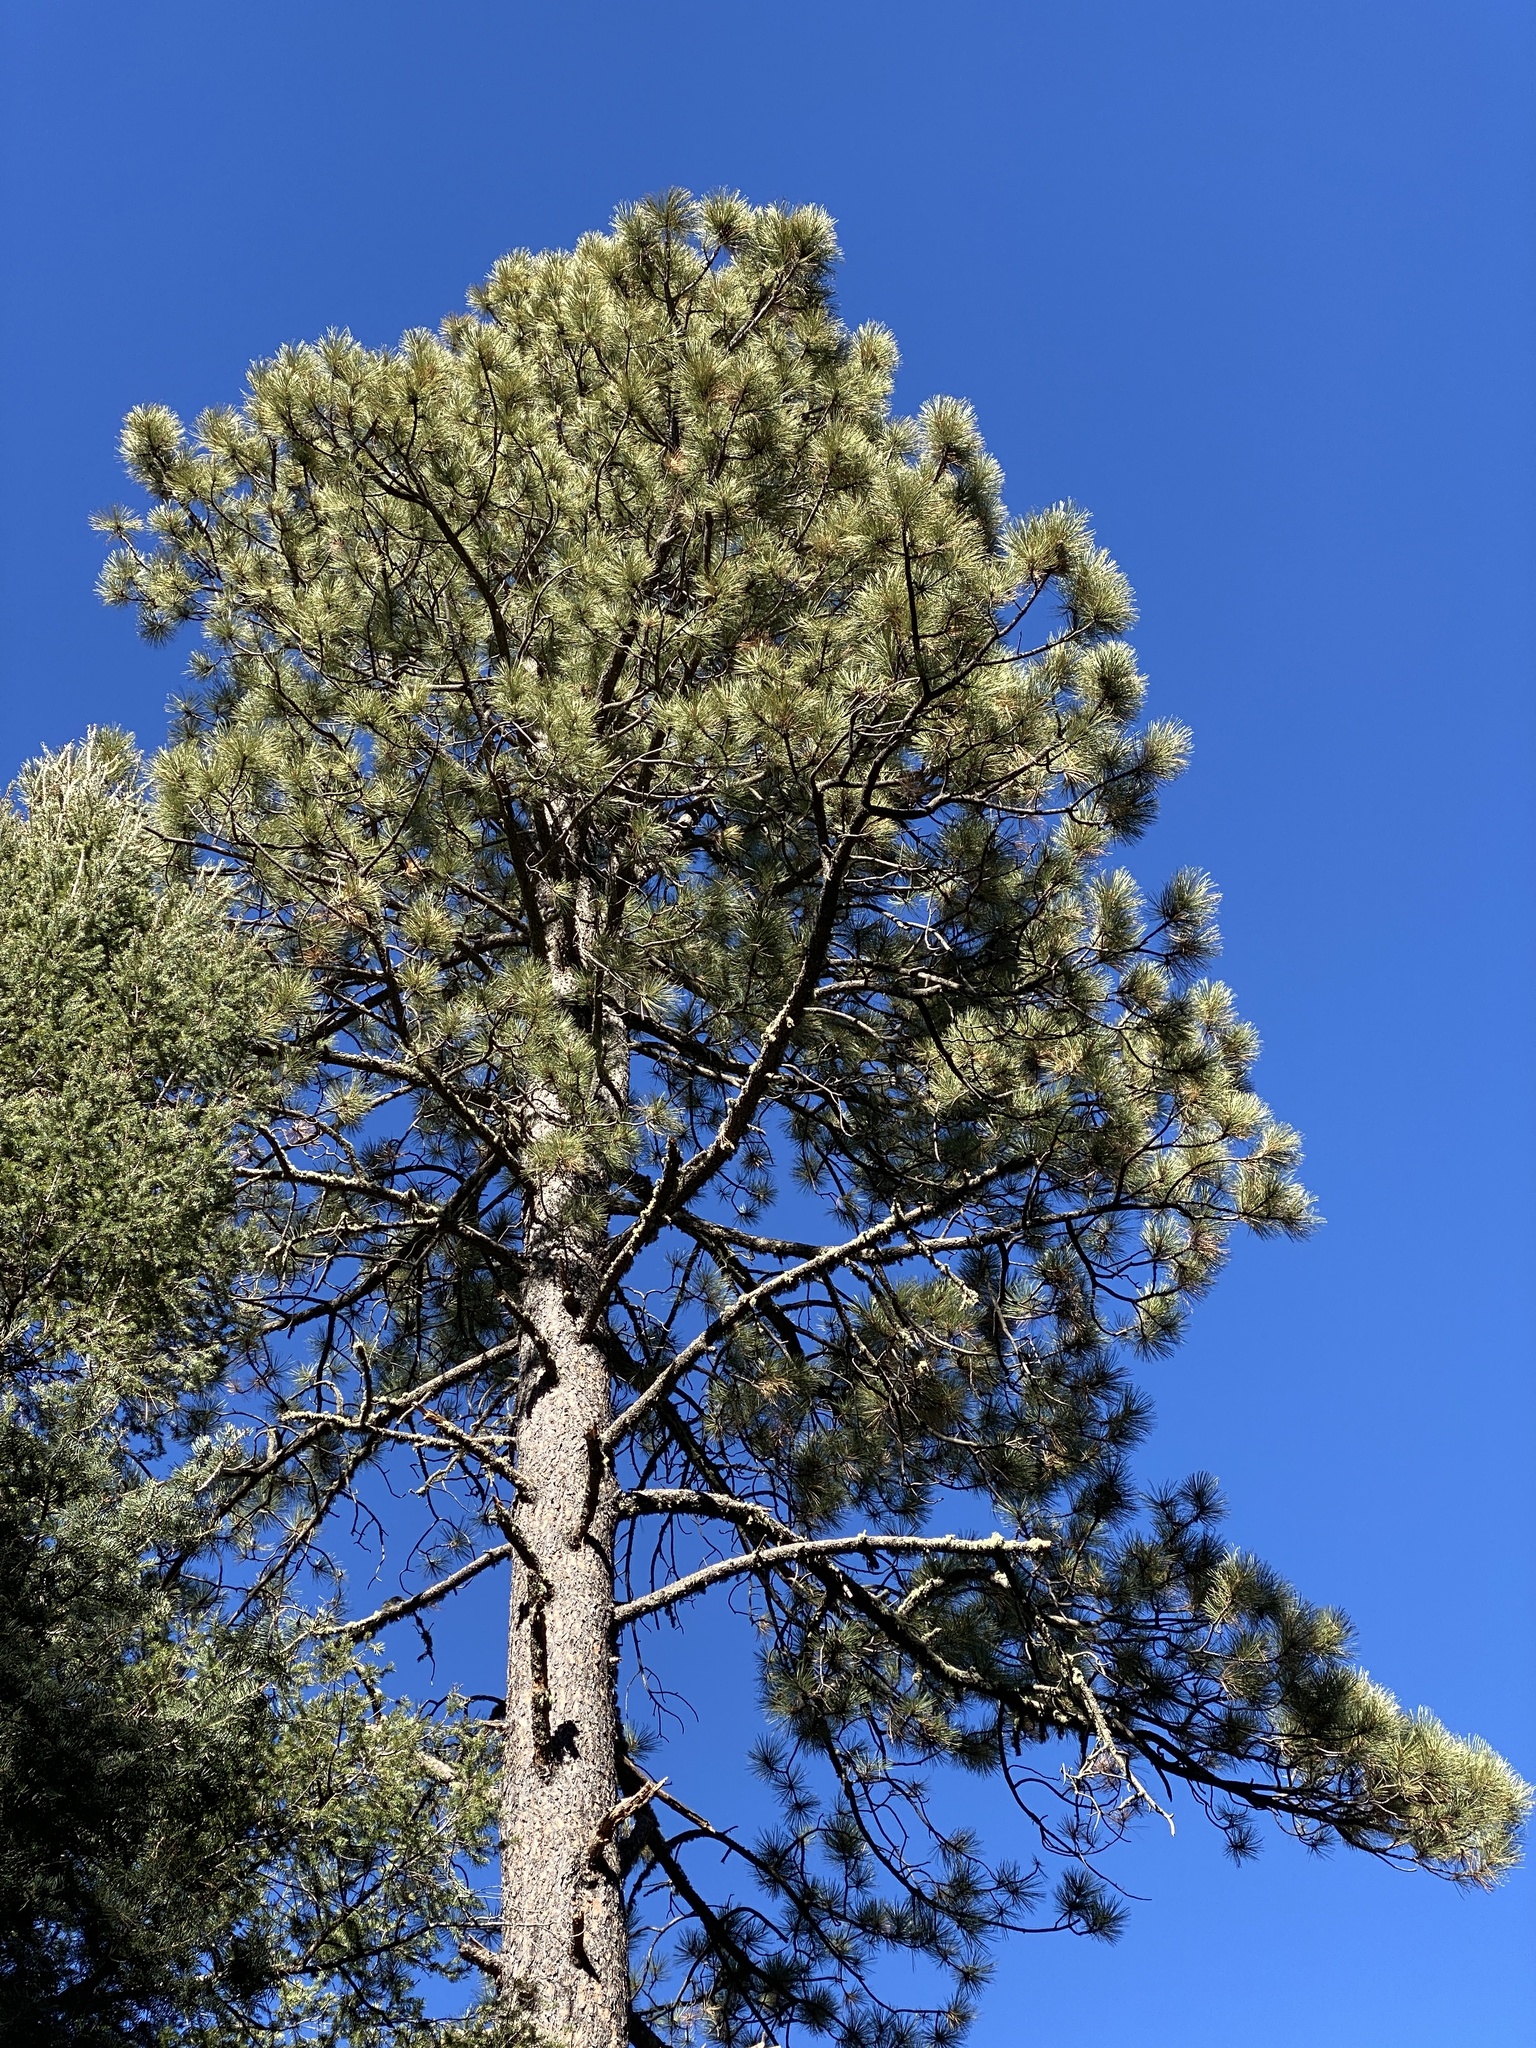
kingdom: Plantae
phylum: Tracheophyta
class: Pinopsida
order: Pinales
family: Pinaceae
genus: Pinus
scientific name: Pinus ponderosa
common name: Western yellow-pine
